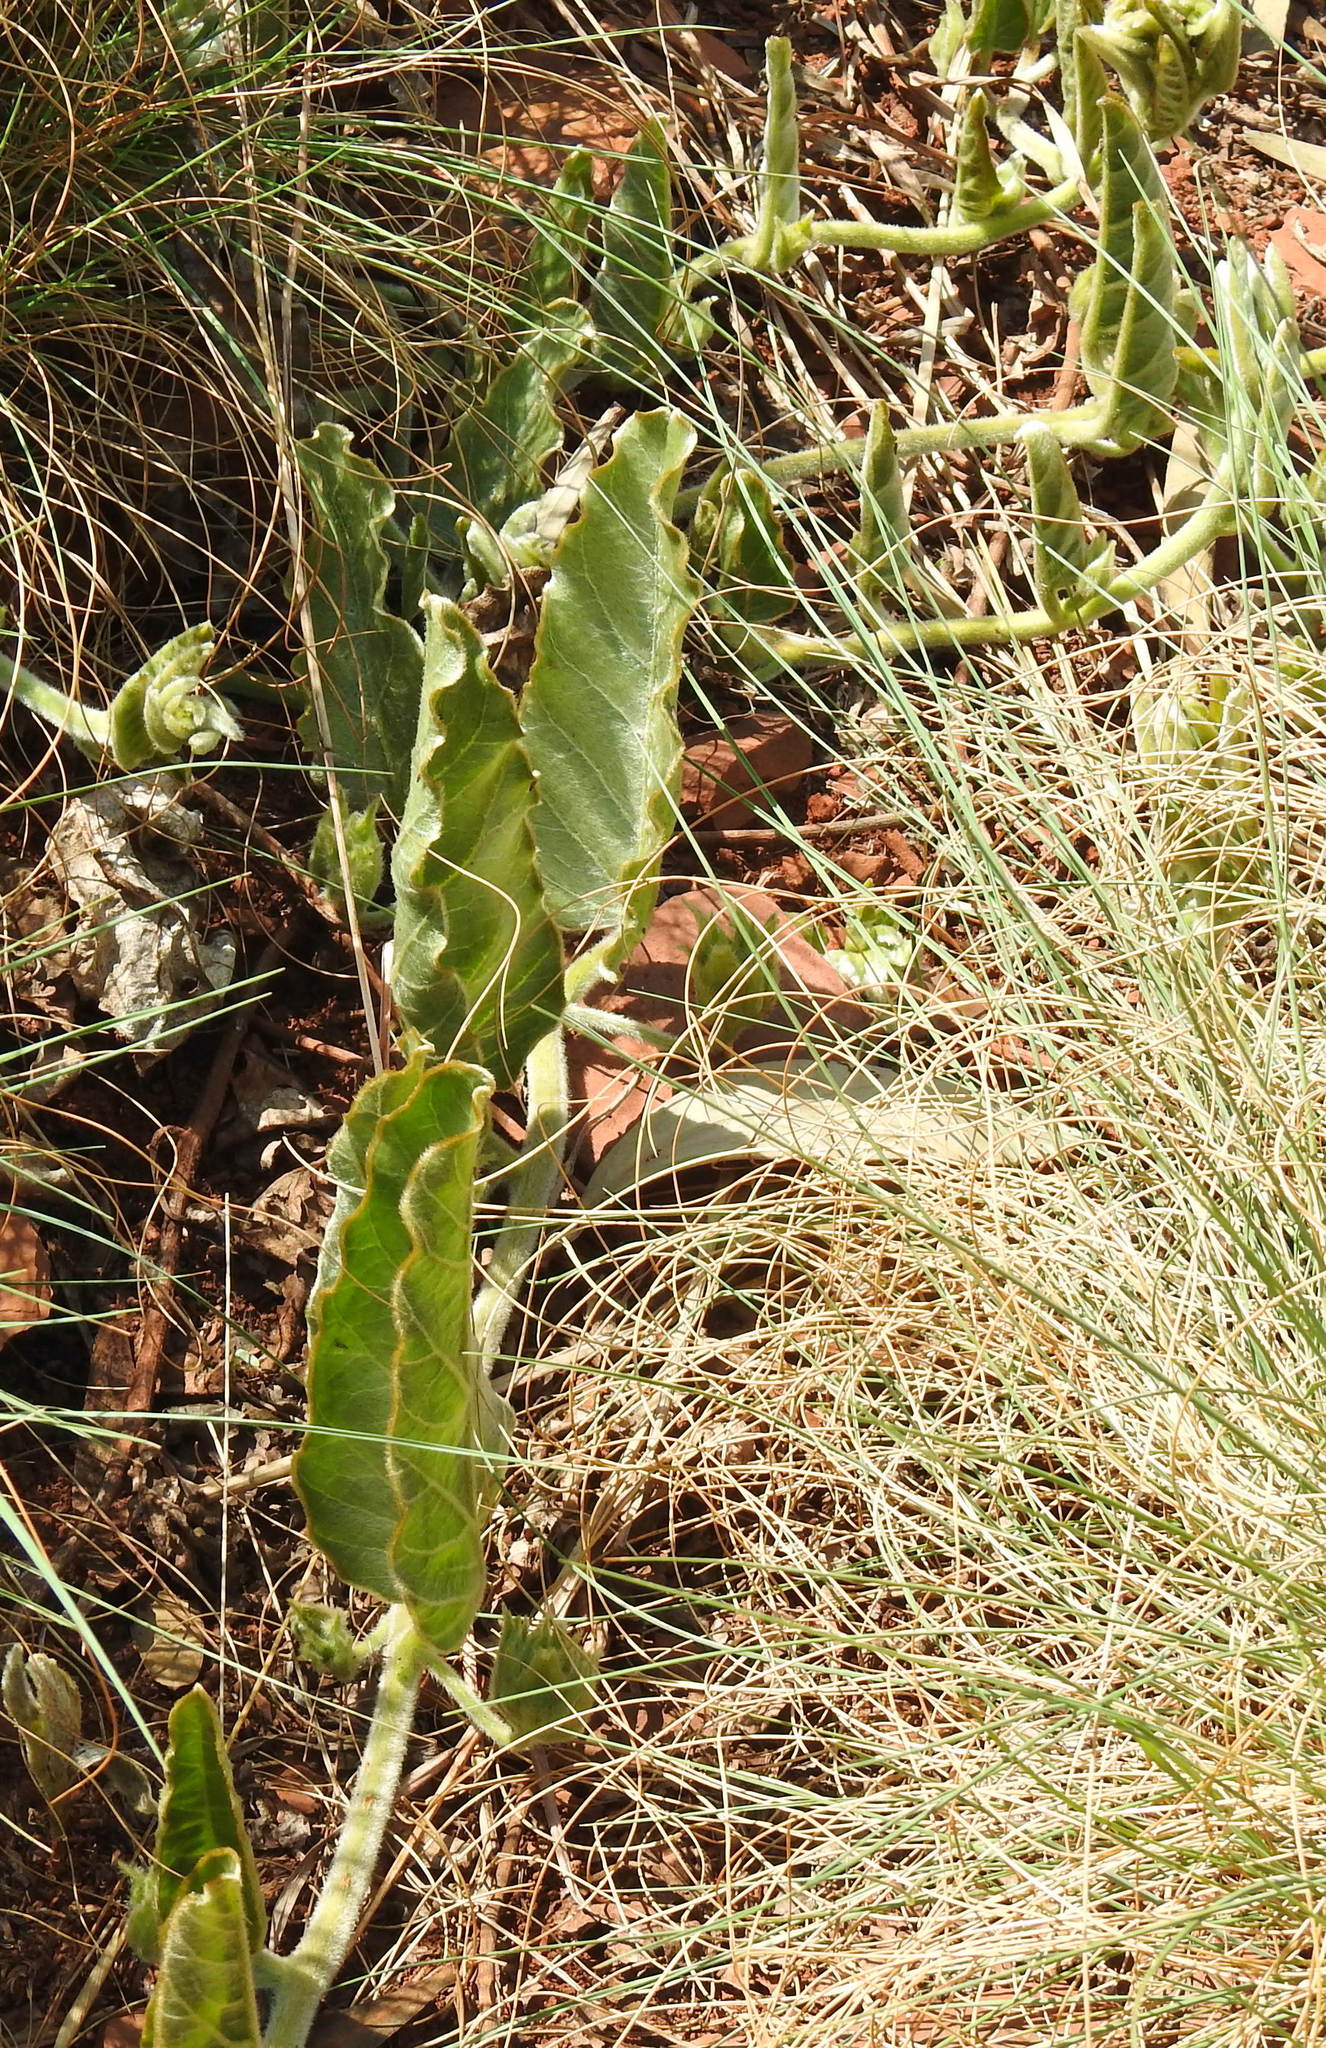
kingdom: Plantae
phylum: Tracheophyta
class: Magnoliopsida
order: Solanales
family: Convolvulaceae
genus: Ipomoea
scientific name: Ipomoea ommanneyi
